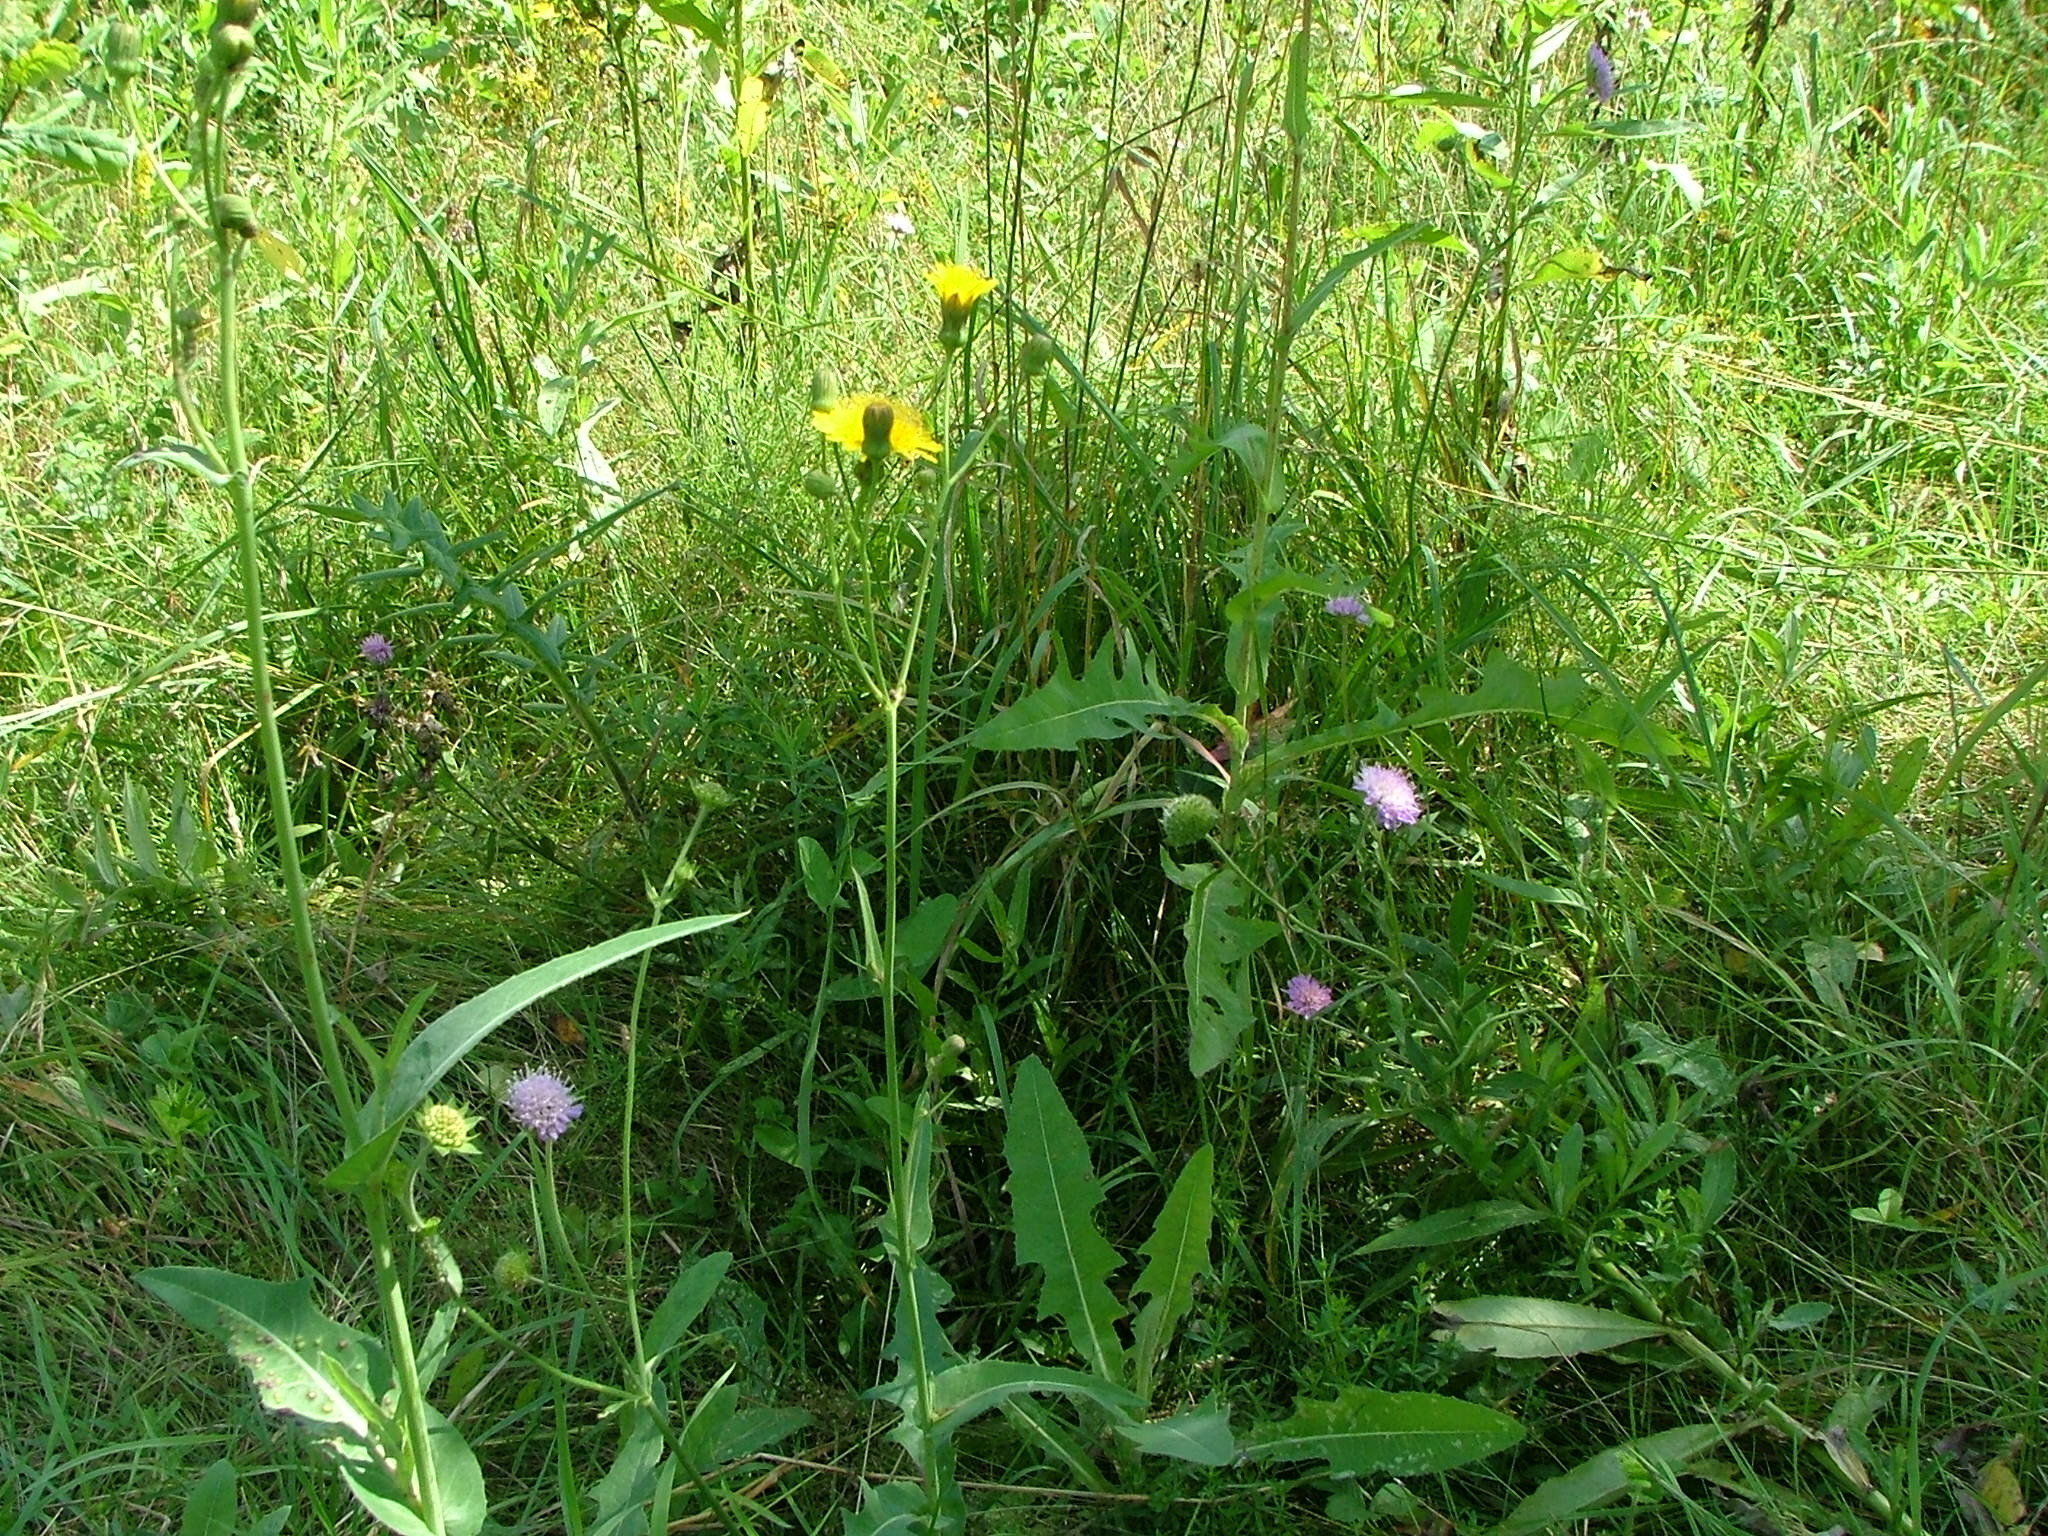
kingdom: Plantae
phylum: Tracheophyta
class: Magnoliopsida
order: Asterales
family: Asteraceae
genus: Sonchus
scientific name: Sonchus arvensis
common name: Perennial sow-thistle
